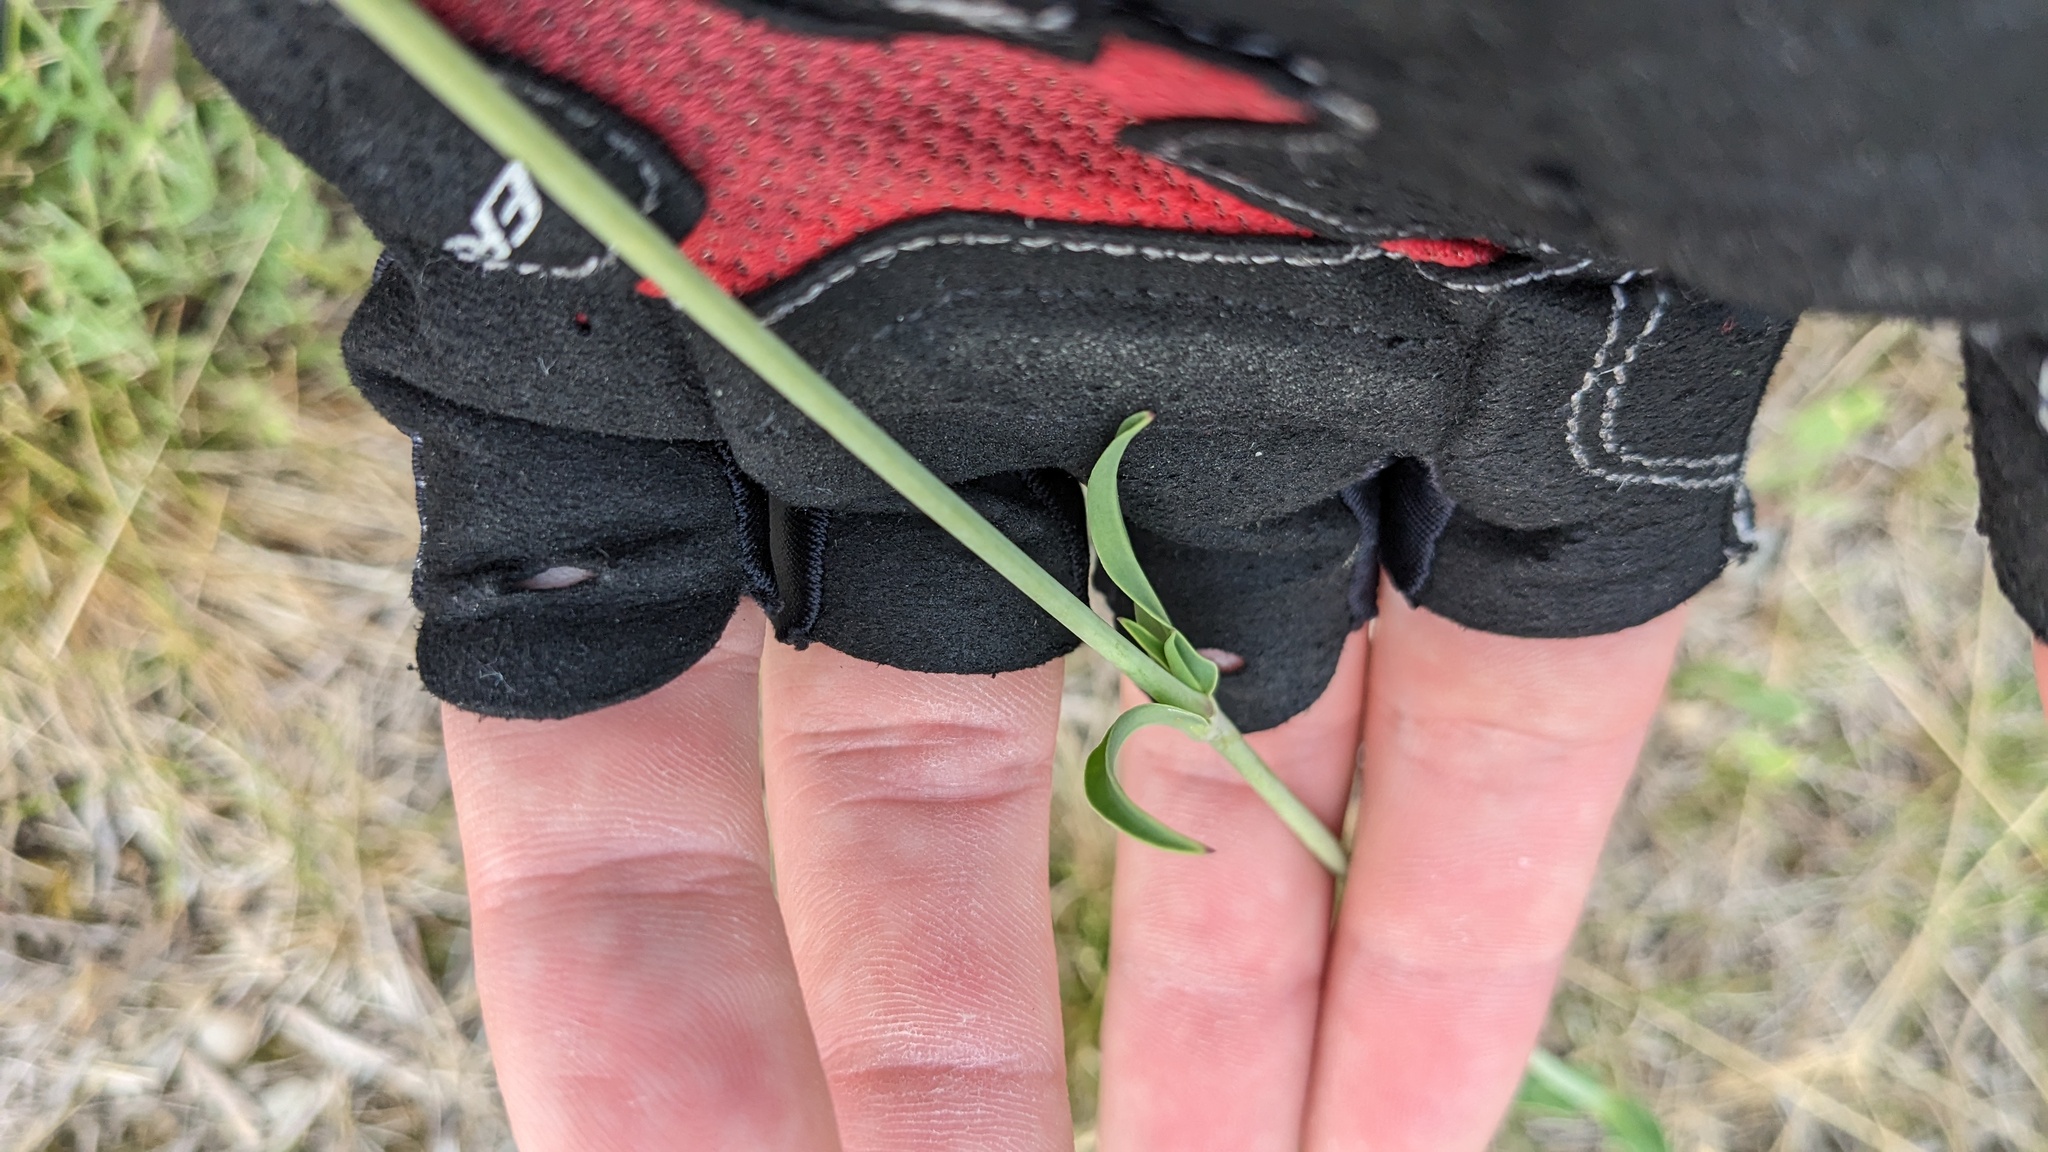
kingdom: Plantae
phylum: Tracheophyta
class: Magnoliopsida
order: Caryophyllales
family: Caryophyllaceae
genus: Silene
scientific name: Silene vulgaris
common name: Bladder campion
